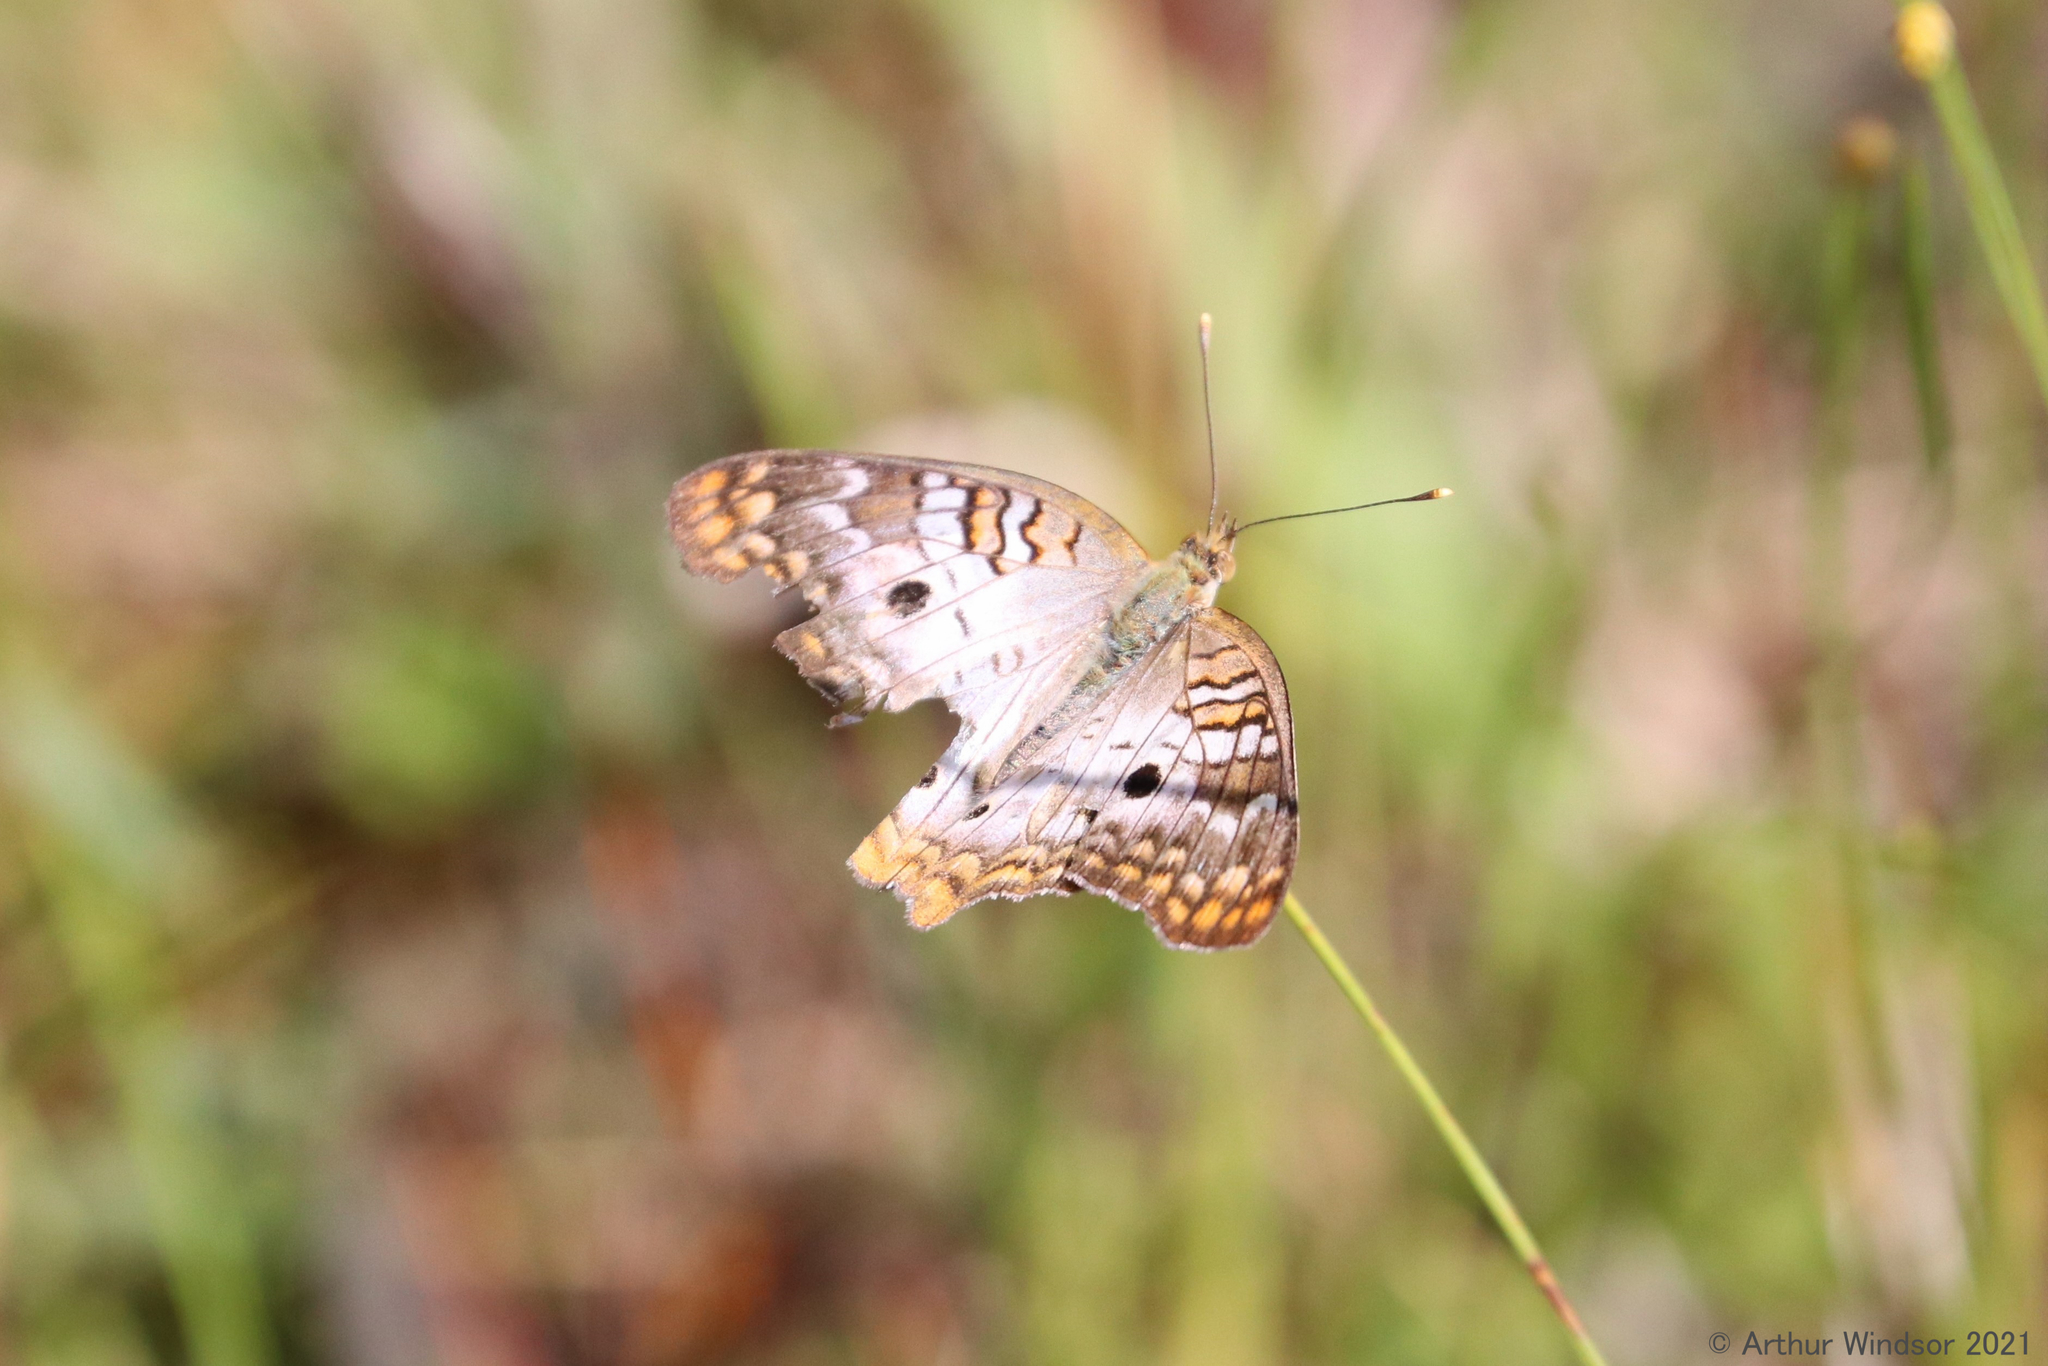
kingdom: Animalia
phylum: Arthropoda
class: Insecta
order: Lepidoptera
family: Nymphalidae
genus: Anartia
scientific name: Anartia jatrophae
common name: White peacock
